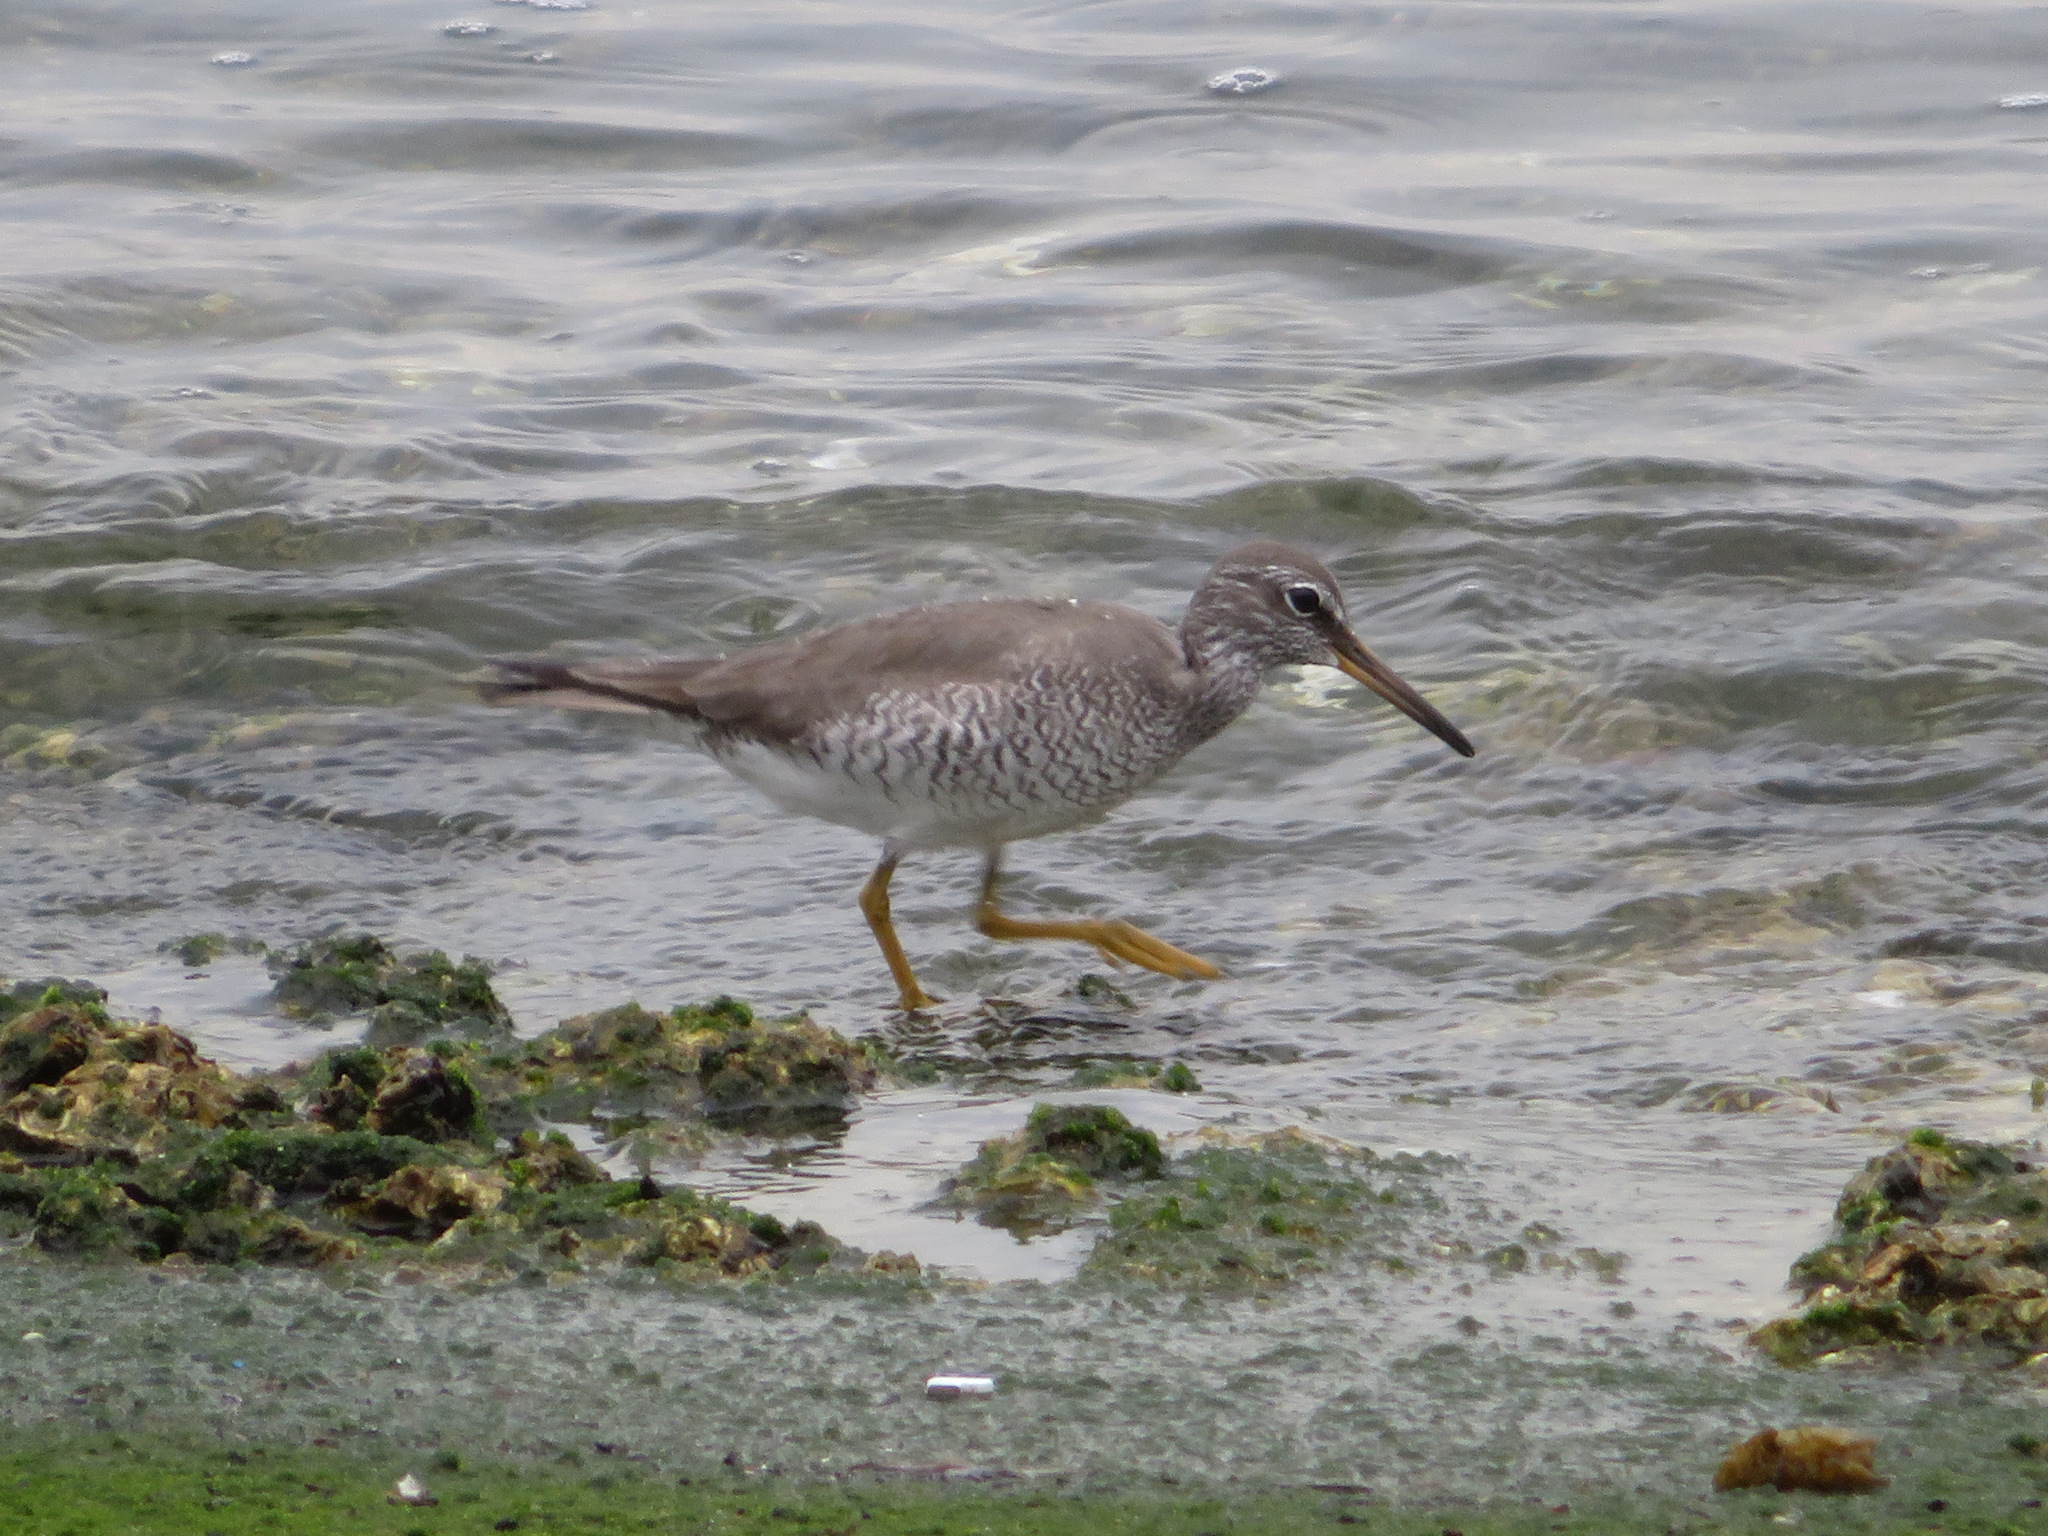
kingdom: Animalia
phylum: Chordata
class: Aves
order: Charadriiformes
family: Scolopacidae
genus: Tringa
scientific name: Tringa brevipes
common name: Grey-tailed tattler
